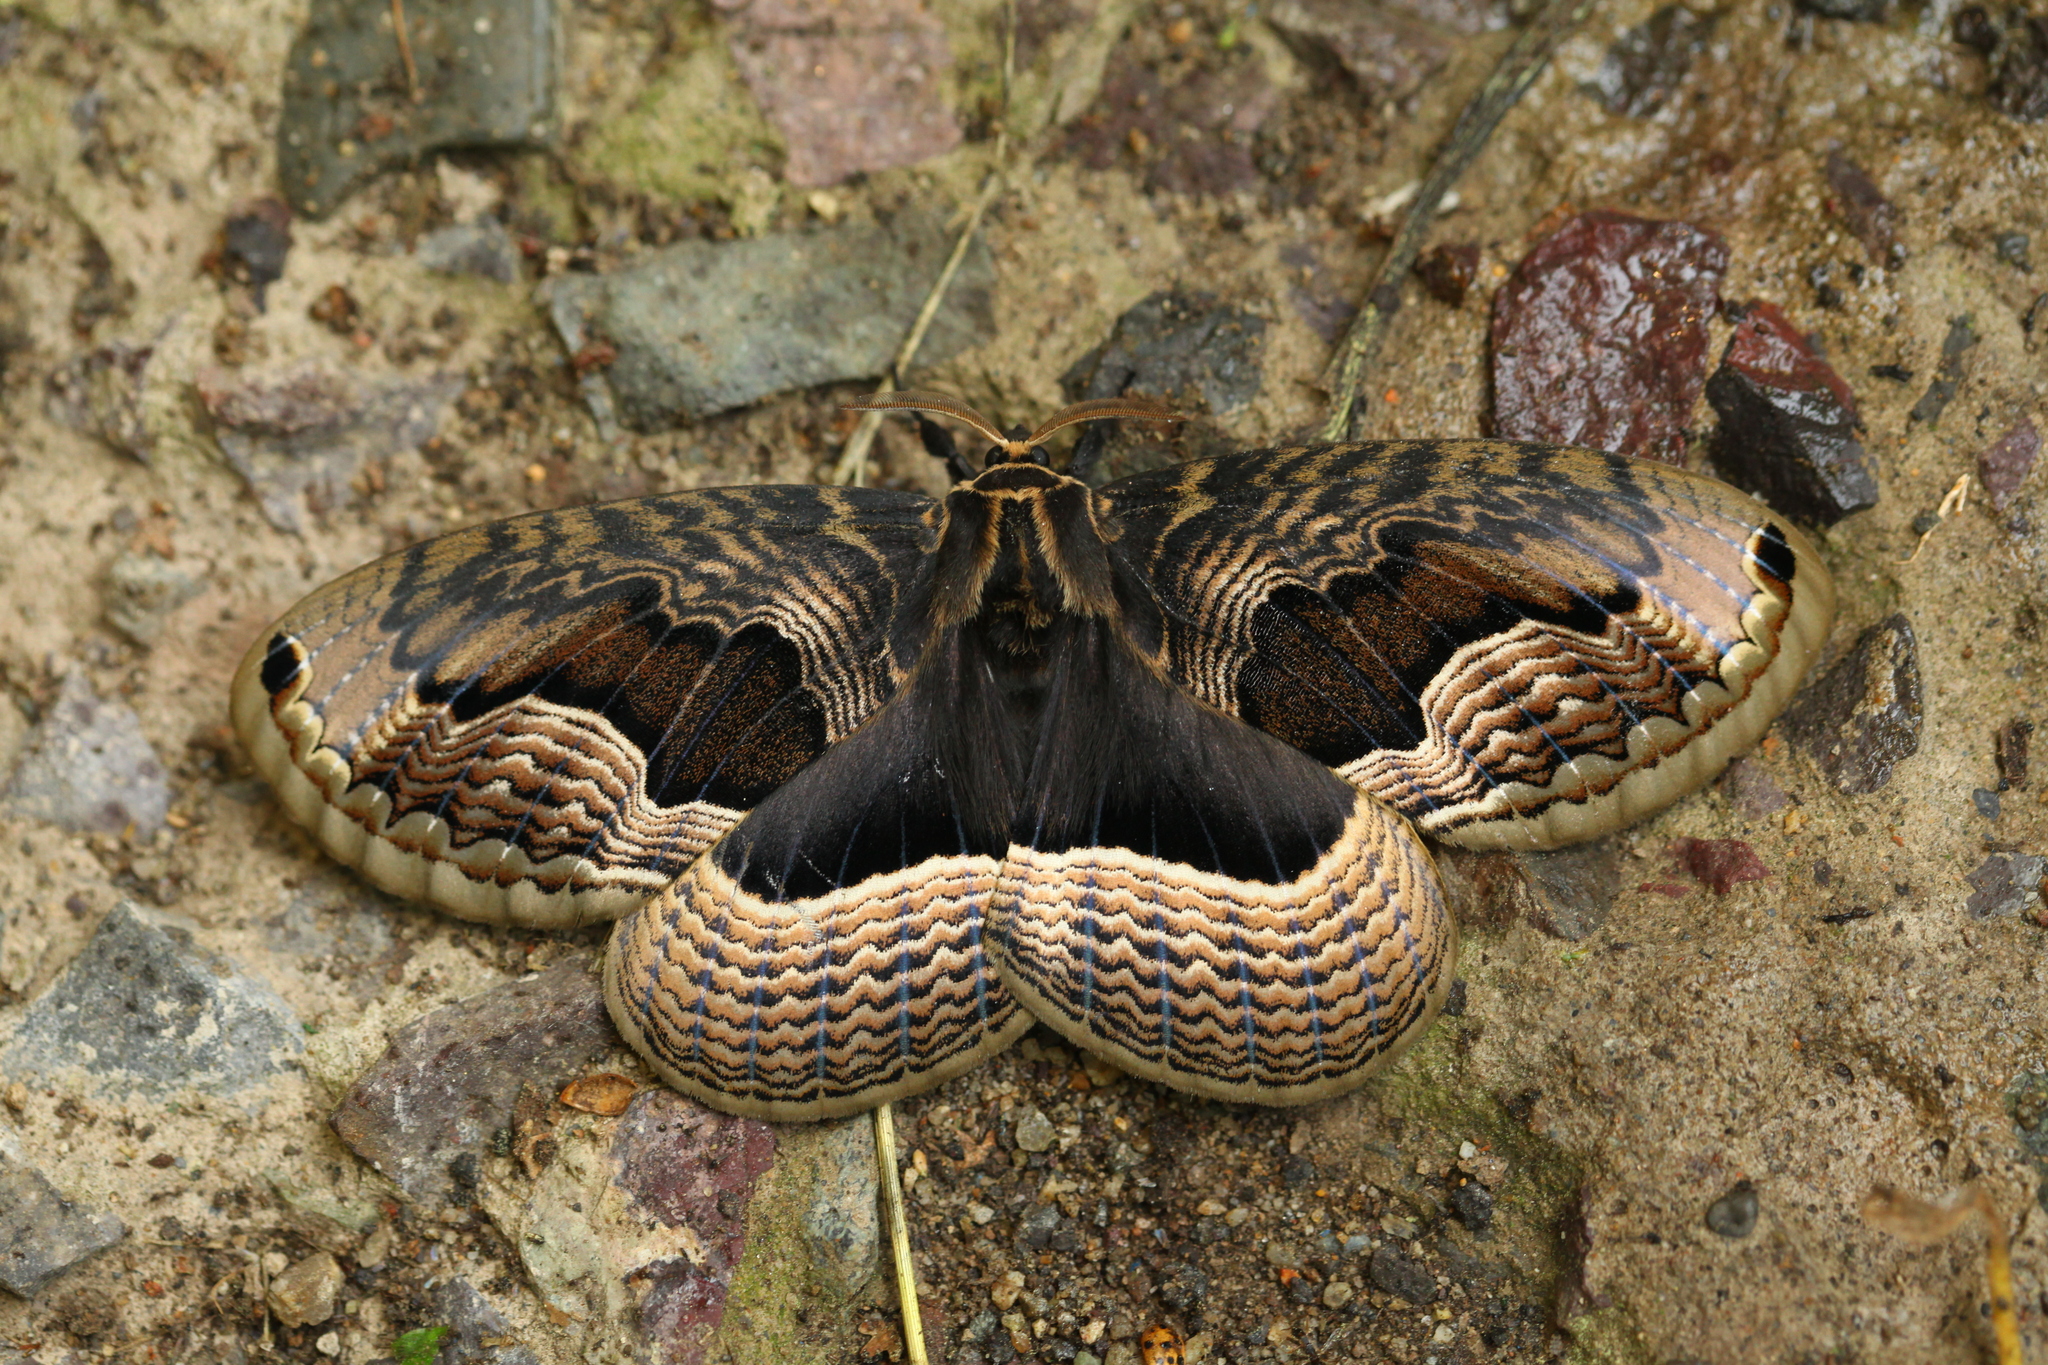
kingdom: Animalia
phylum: Arthropoda
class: Insecta
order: Lepidoptera
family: Brahmaeidae
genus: Brahmaea
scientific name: Brahmaea certhia
